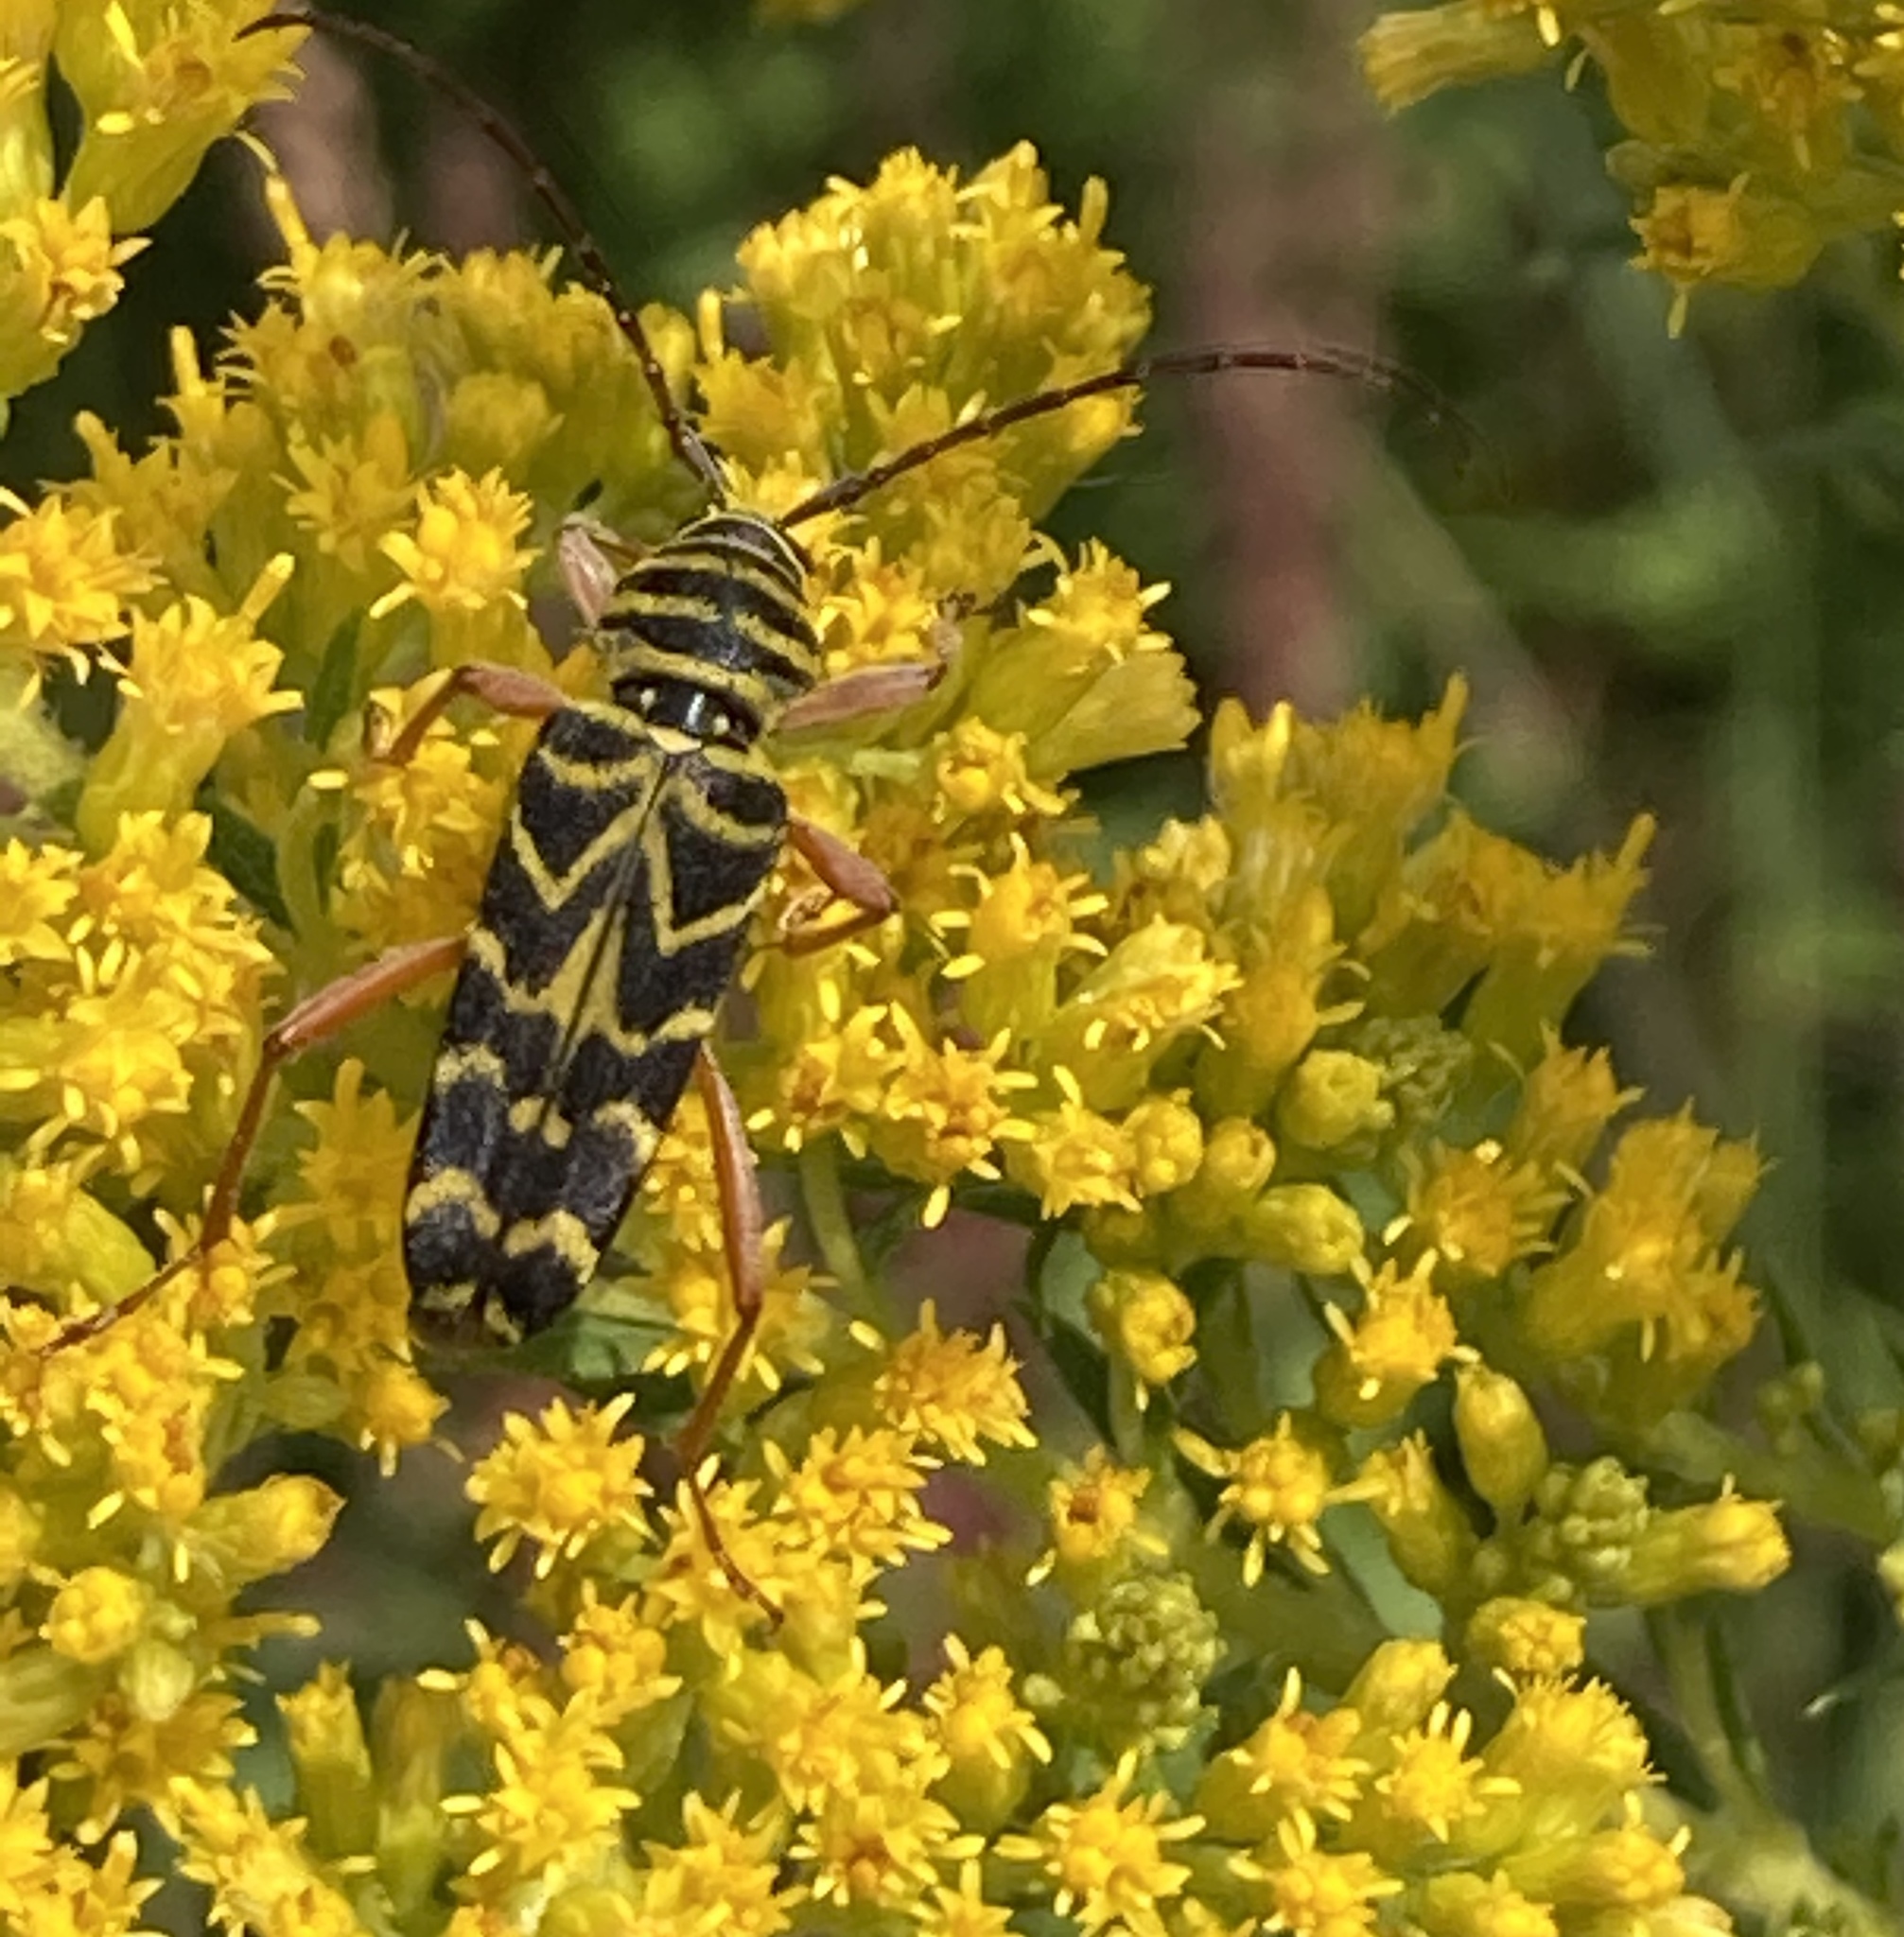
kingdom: Animalia
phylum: Arthropoda
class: Insecta
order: Coleoptera
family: Cerambycidae
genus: Megacyllene
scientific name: Megacyllene robiniae
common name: Locust borer
